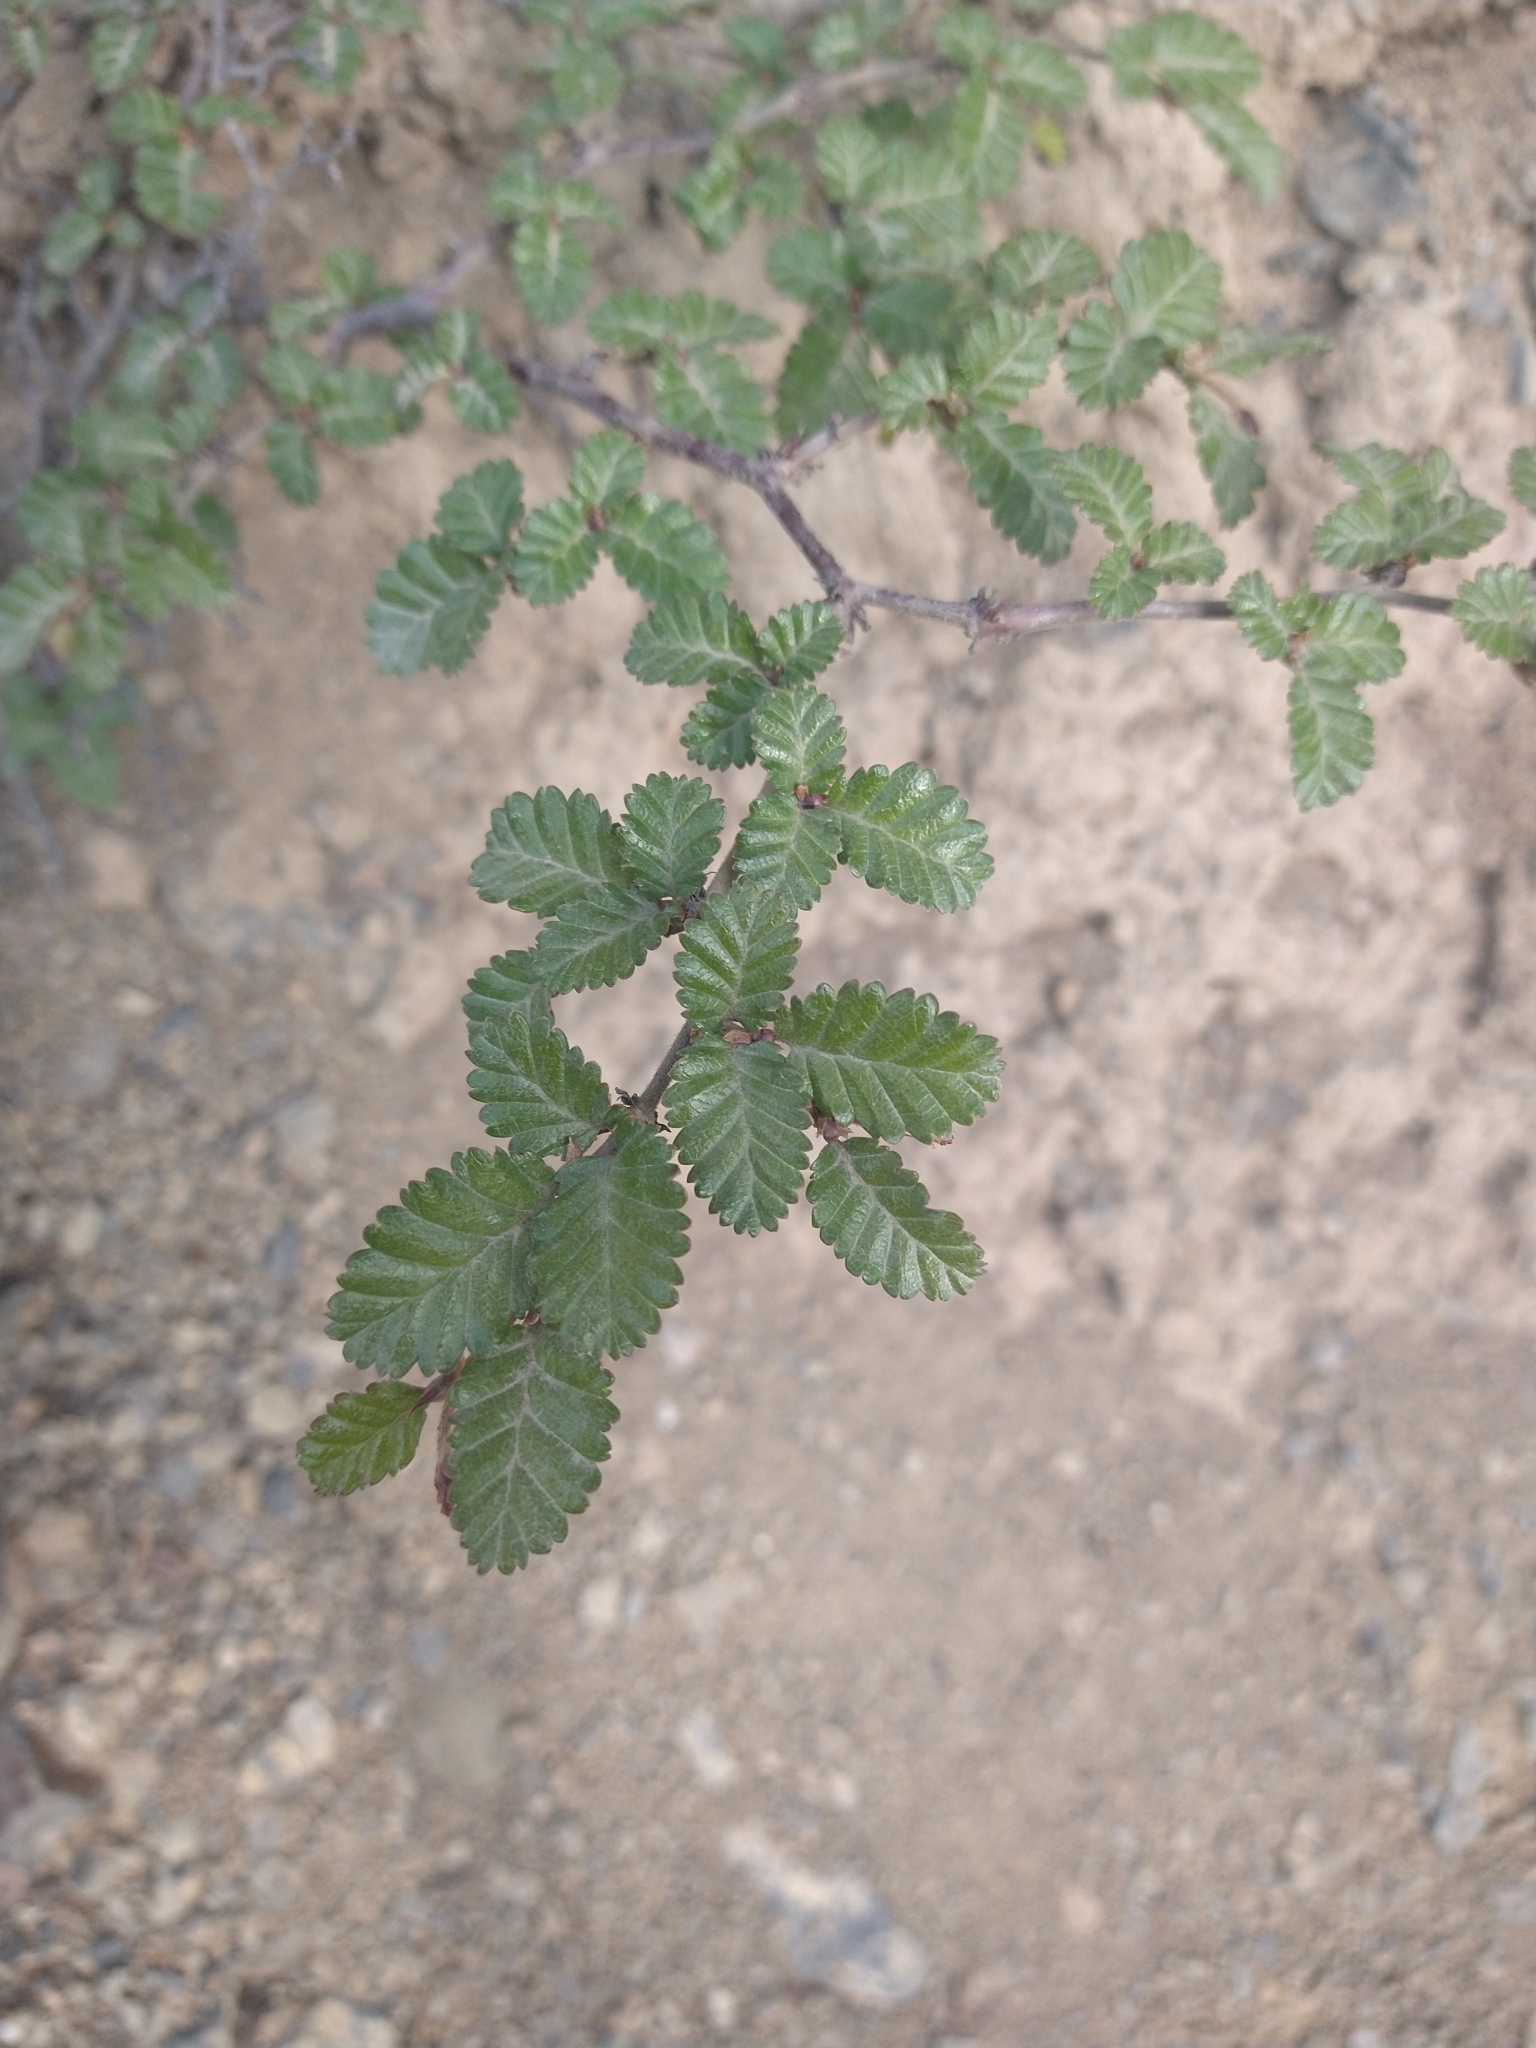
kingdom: Plantae
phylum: Tracheophyta
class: Magnoliopsida
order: Fagales
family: Nothofagaceae
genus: Nothofagus
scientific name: Nothofagus pumilio
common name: Lenga beech
